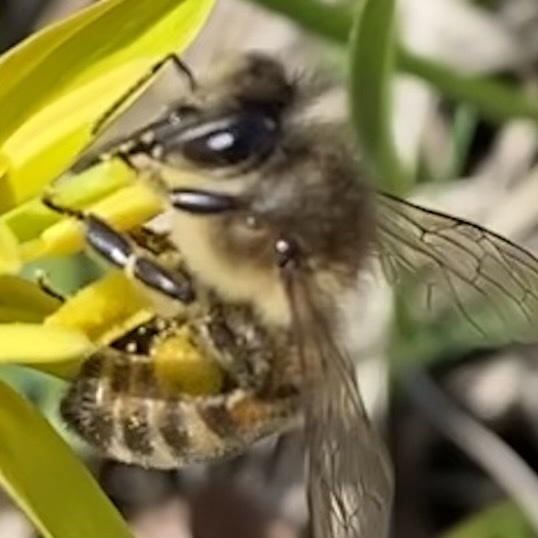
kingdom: Animalia
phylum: Arthropoda
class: Insecta
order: Hymenoptera
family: Apidae
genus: Apis
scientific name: Apis mellifera
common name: Honey bee
